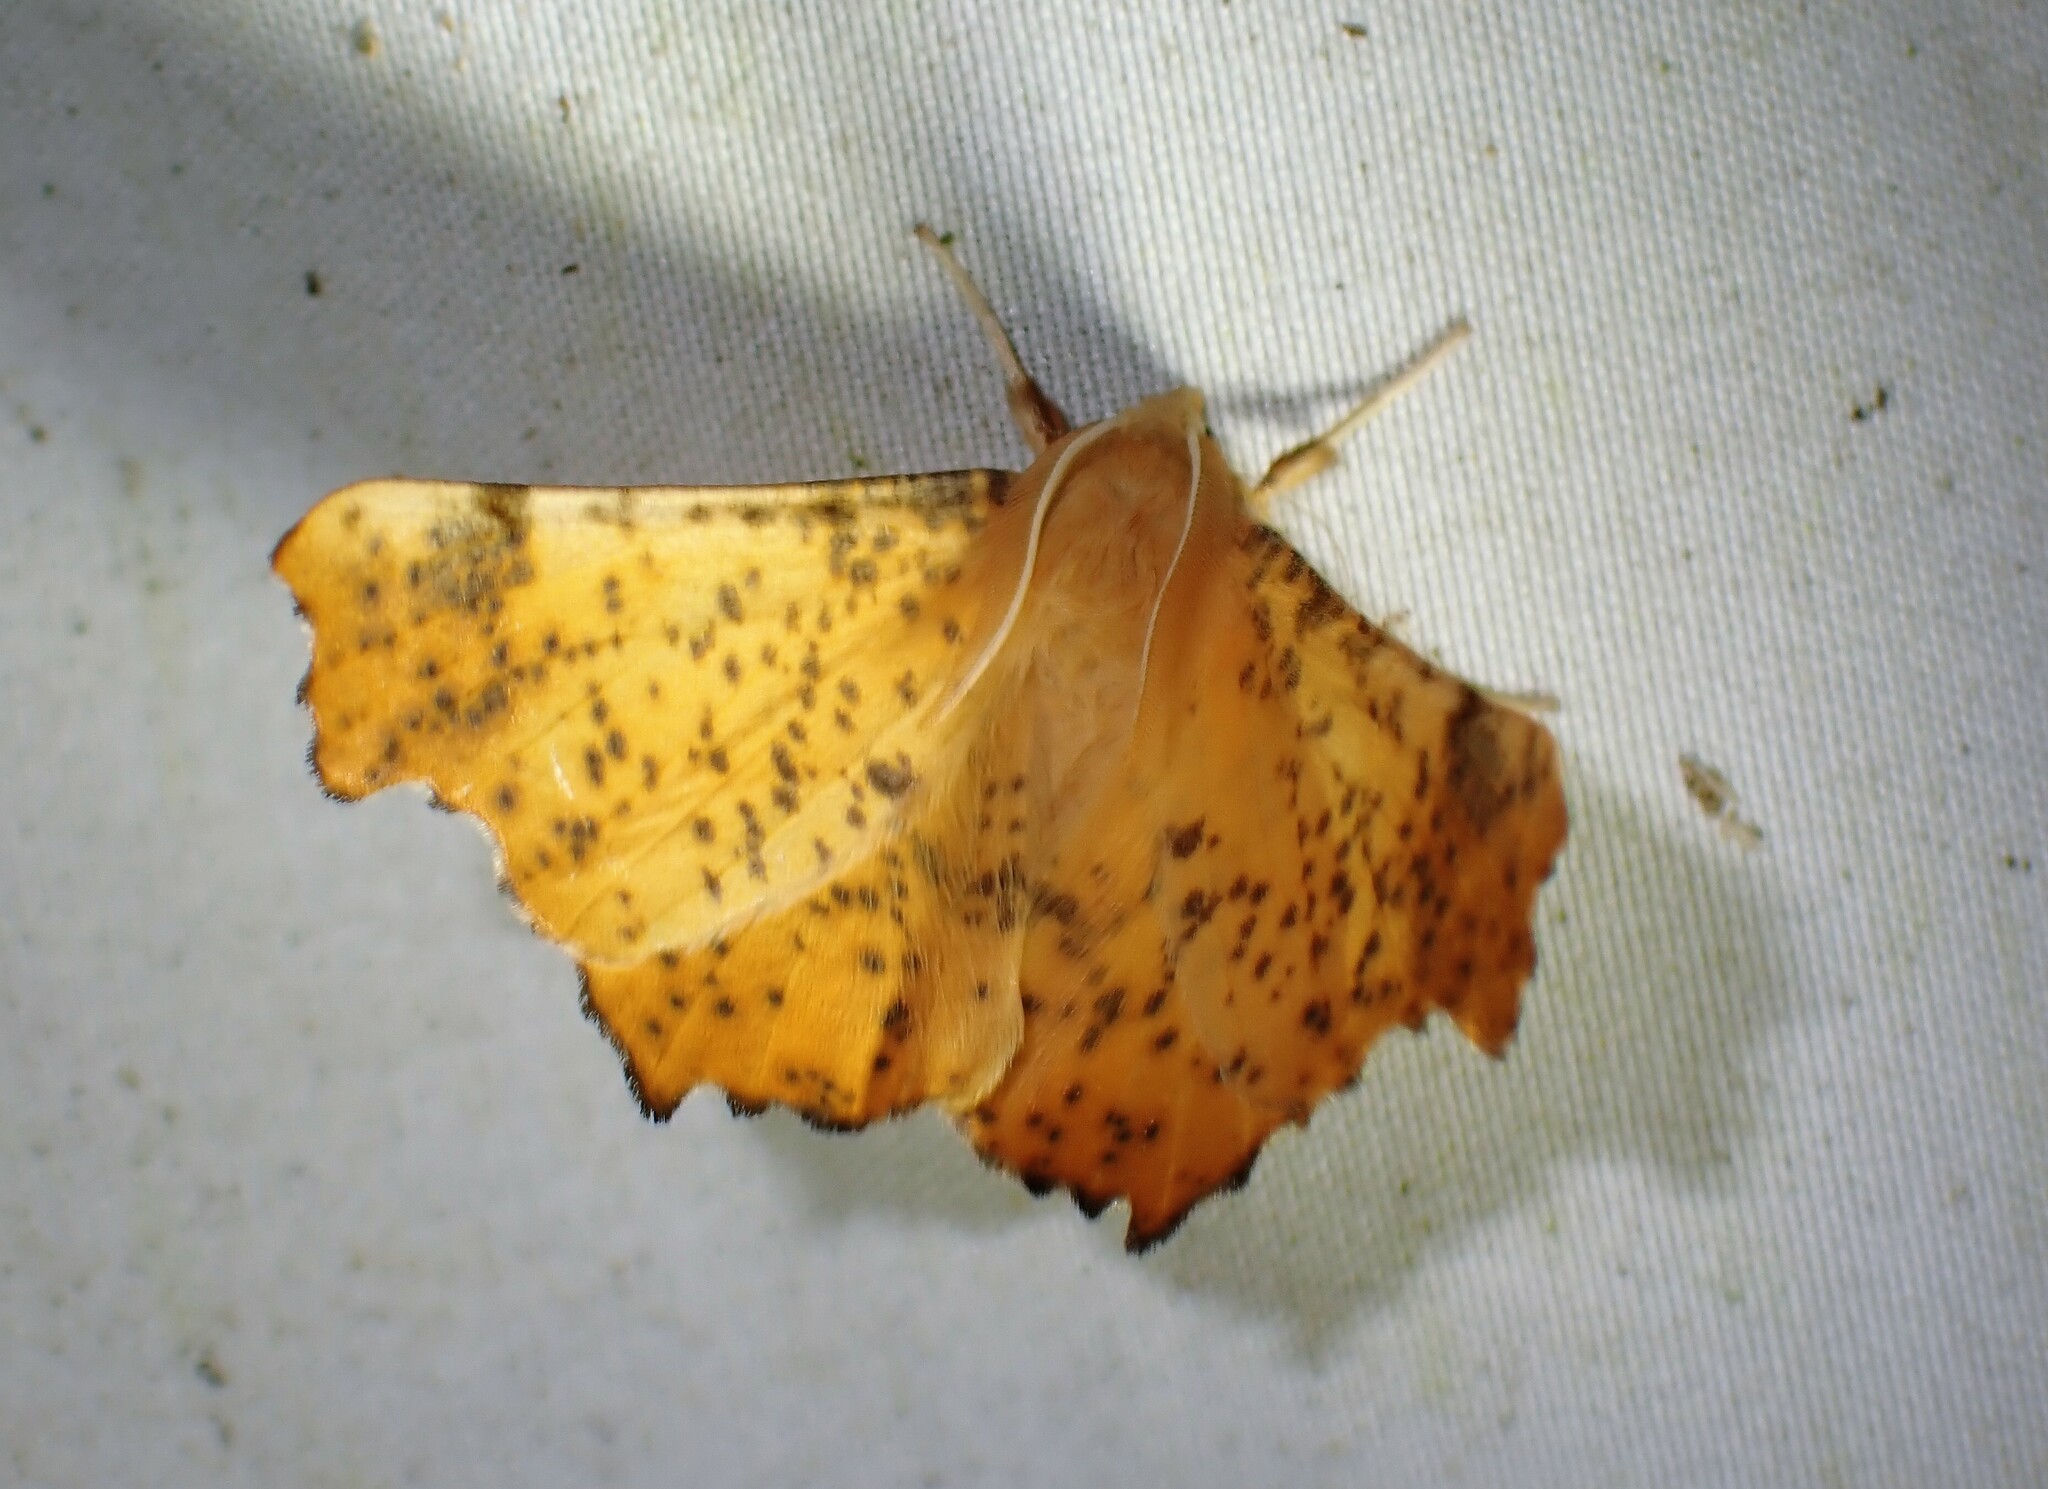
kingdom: Animalia
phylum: Arthropoda
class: Insecta
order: Lepidoptera
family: Geometridae
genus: Ennomos
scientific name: Ennomos magnaria
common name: Maple spanworm
